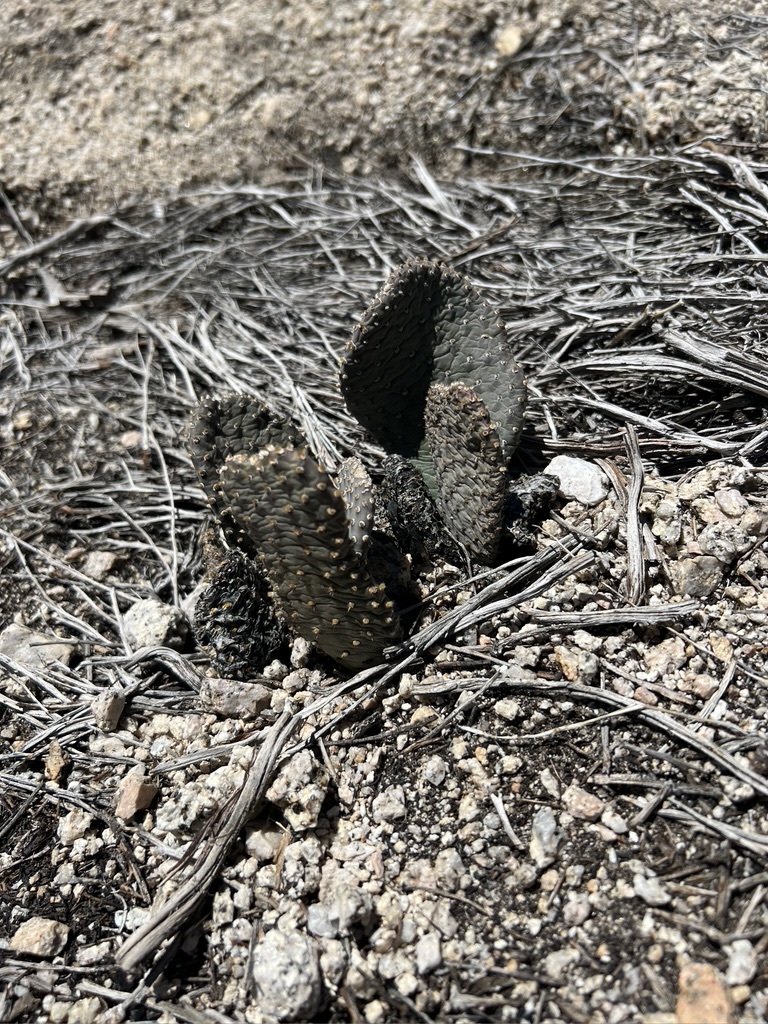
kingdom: Plantae
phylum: Tracheophyta
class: Magnoliopsida
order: Caryophyllales
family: Cactaceae
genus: Opuntia
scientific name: Opuntia basilaris
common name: Beavertail prickly-pear
